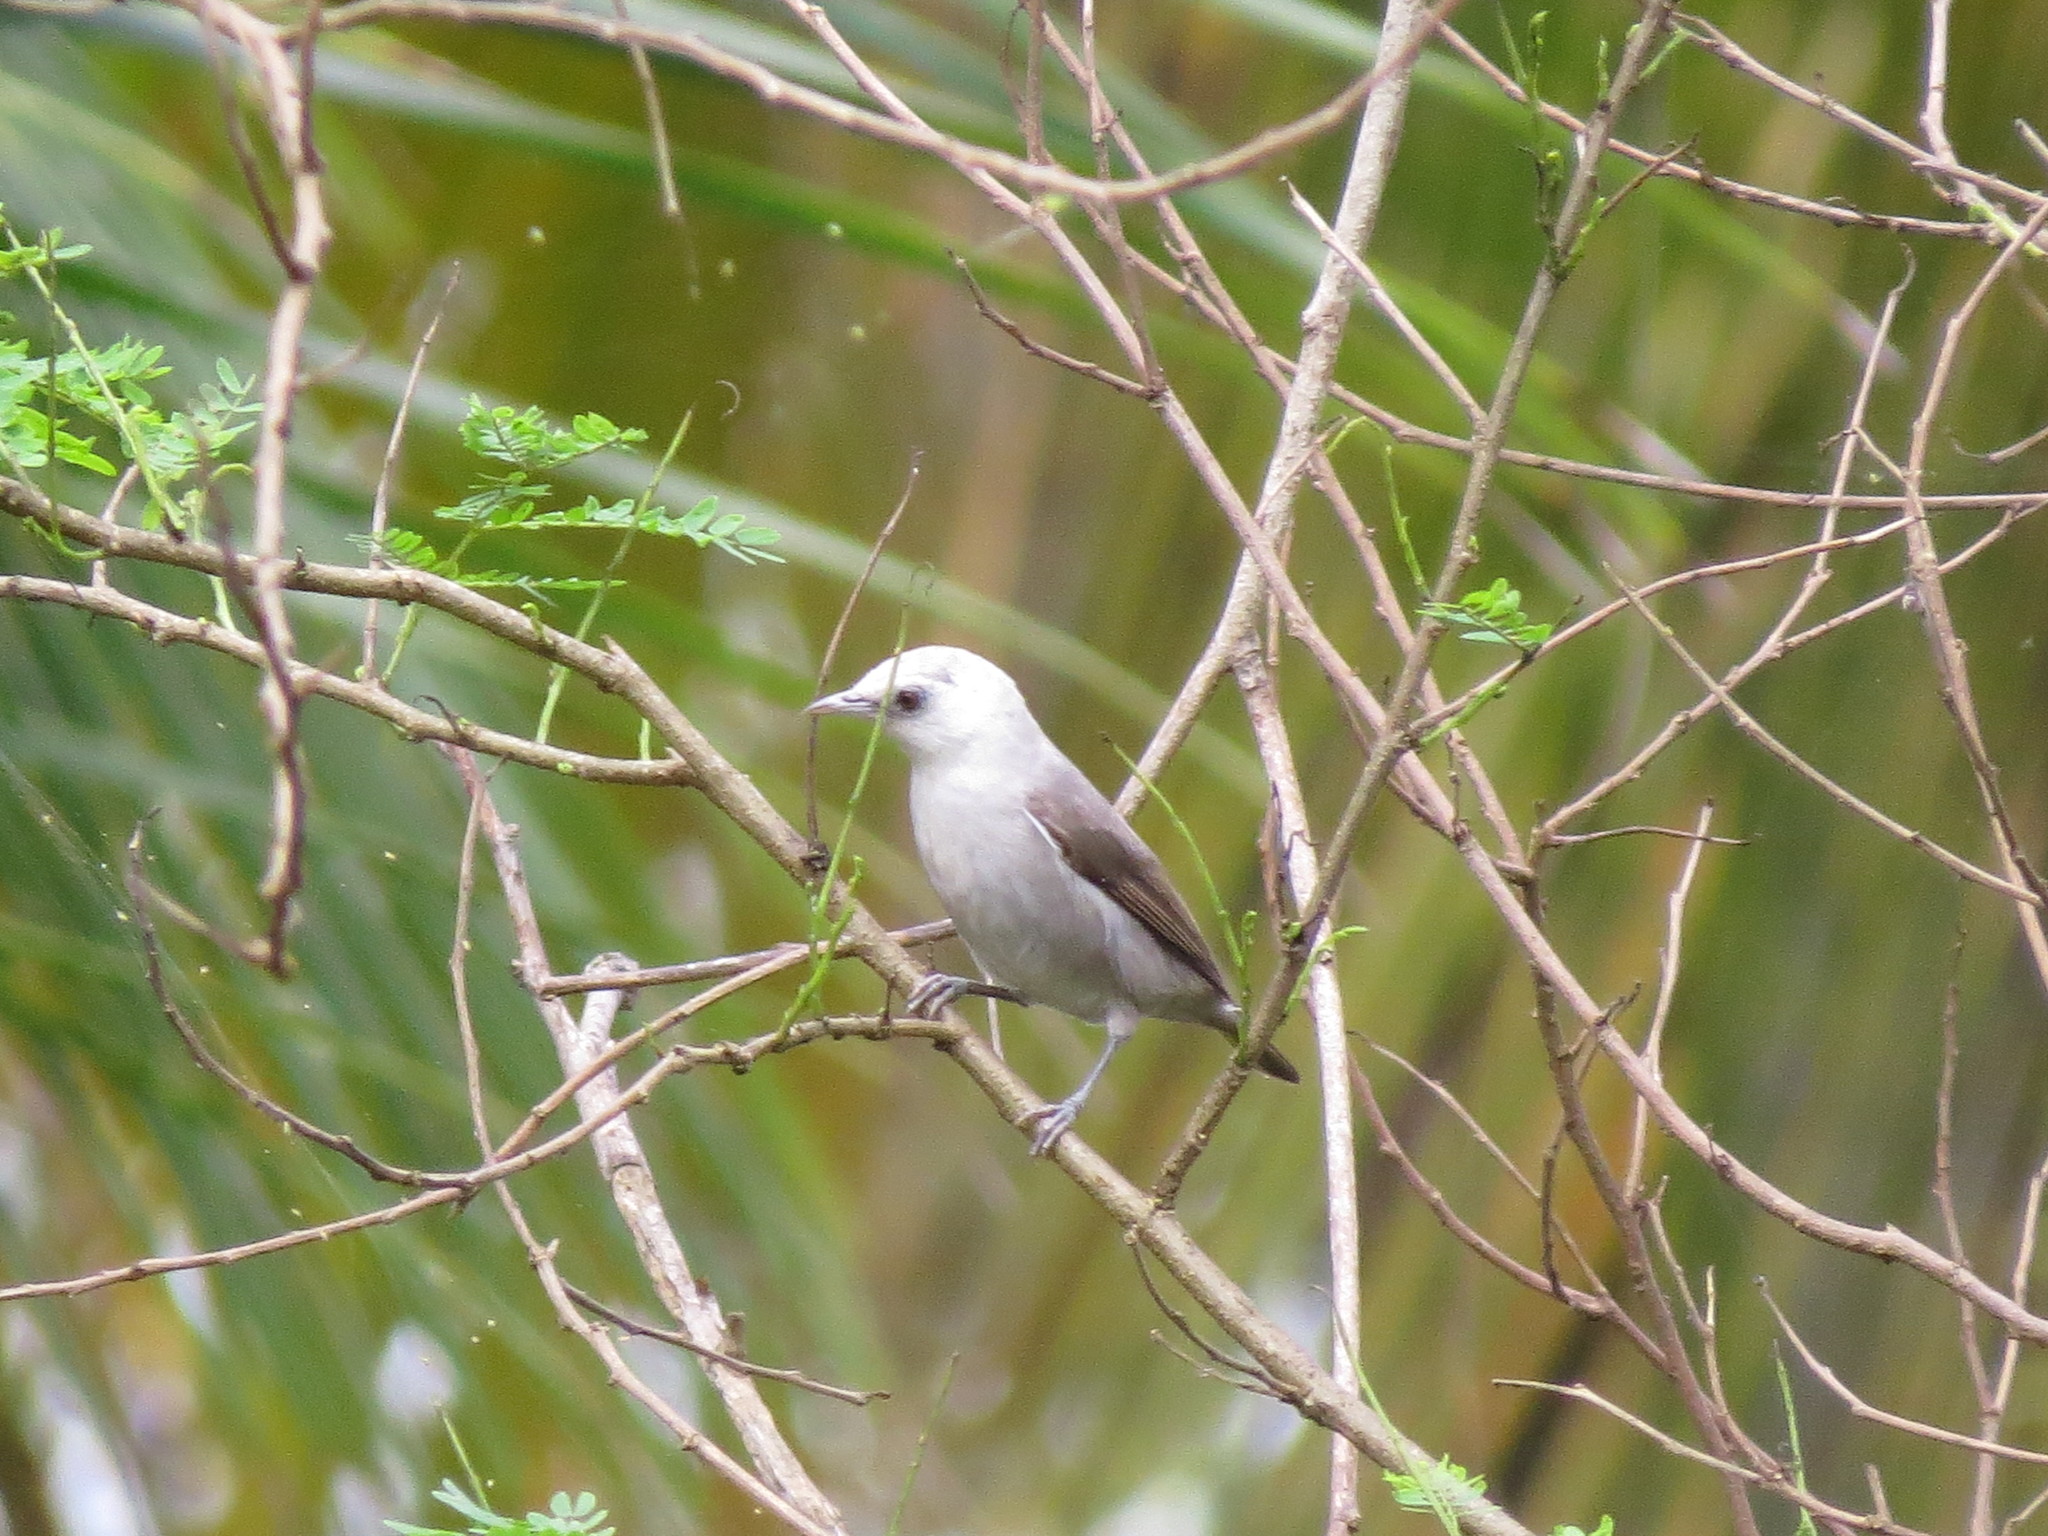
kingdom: Animalia
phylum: Chordata
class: Aves
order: Passeriformes
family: Zosteropidae
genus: Zosterops
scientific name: Zosterops leucophaeus
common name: Principe speirops
